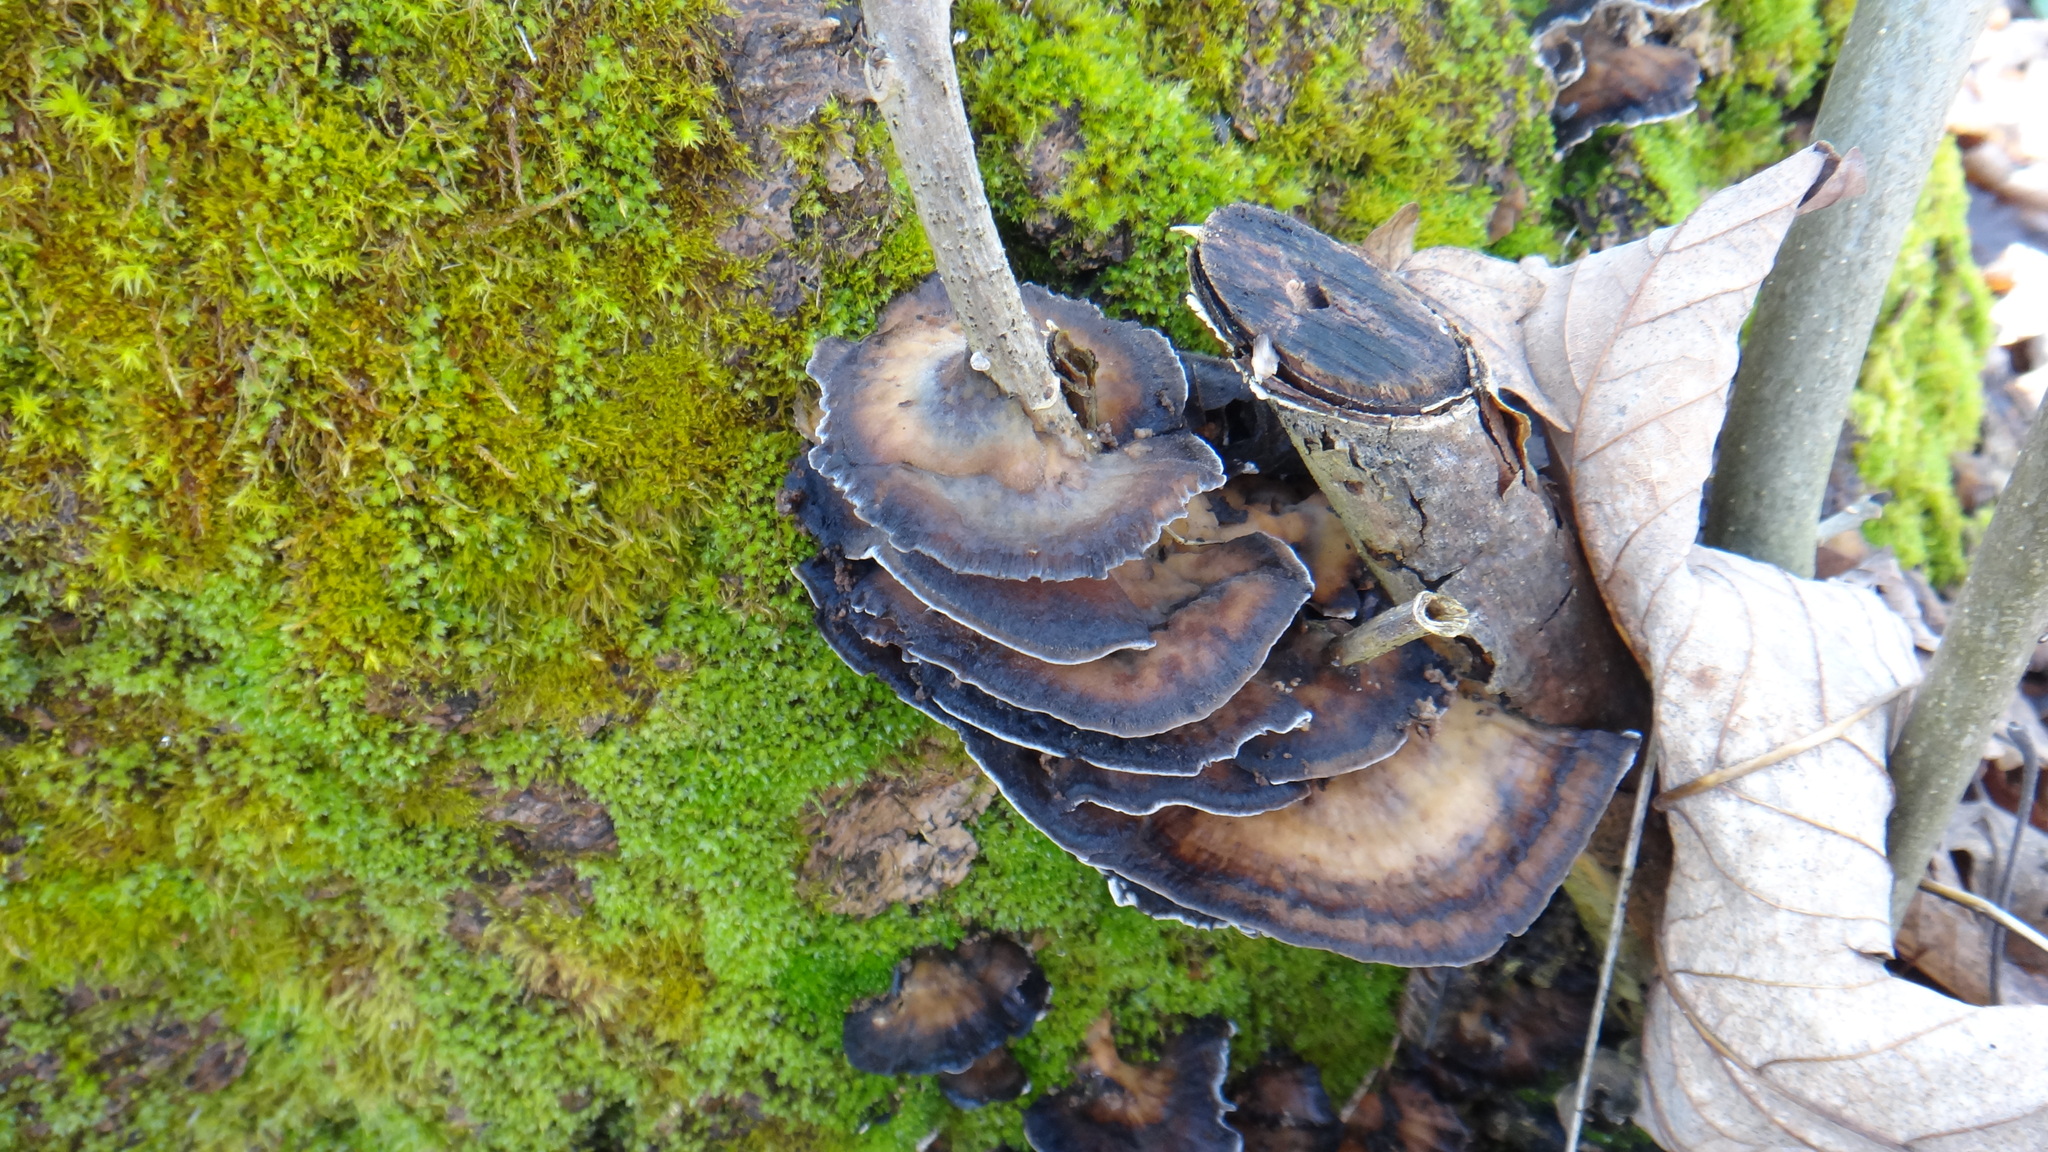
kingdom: Fungi
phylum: Basidiomycota
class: Agaricomycetes
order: Polyporales
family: Meripilaceae
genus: Meripilus
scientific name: Meripilus giganteus
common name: Giant polypore
